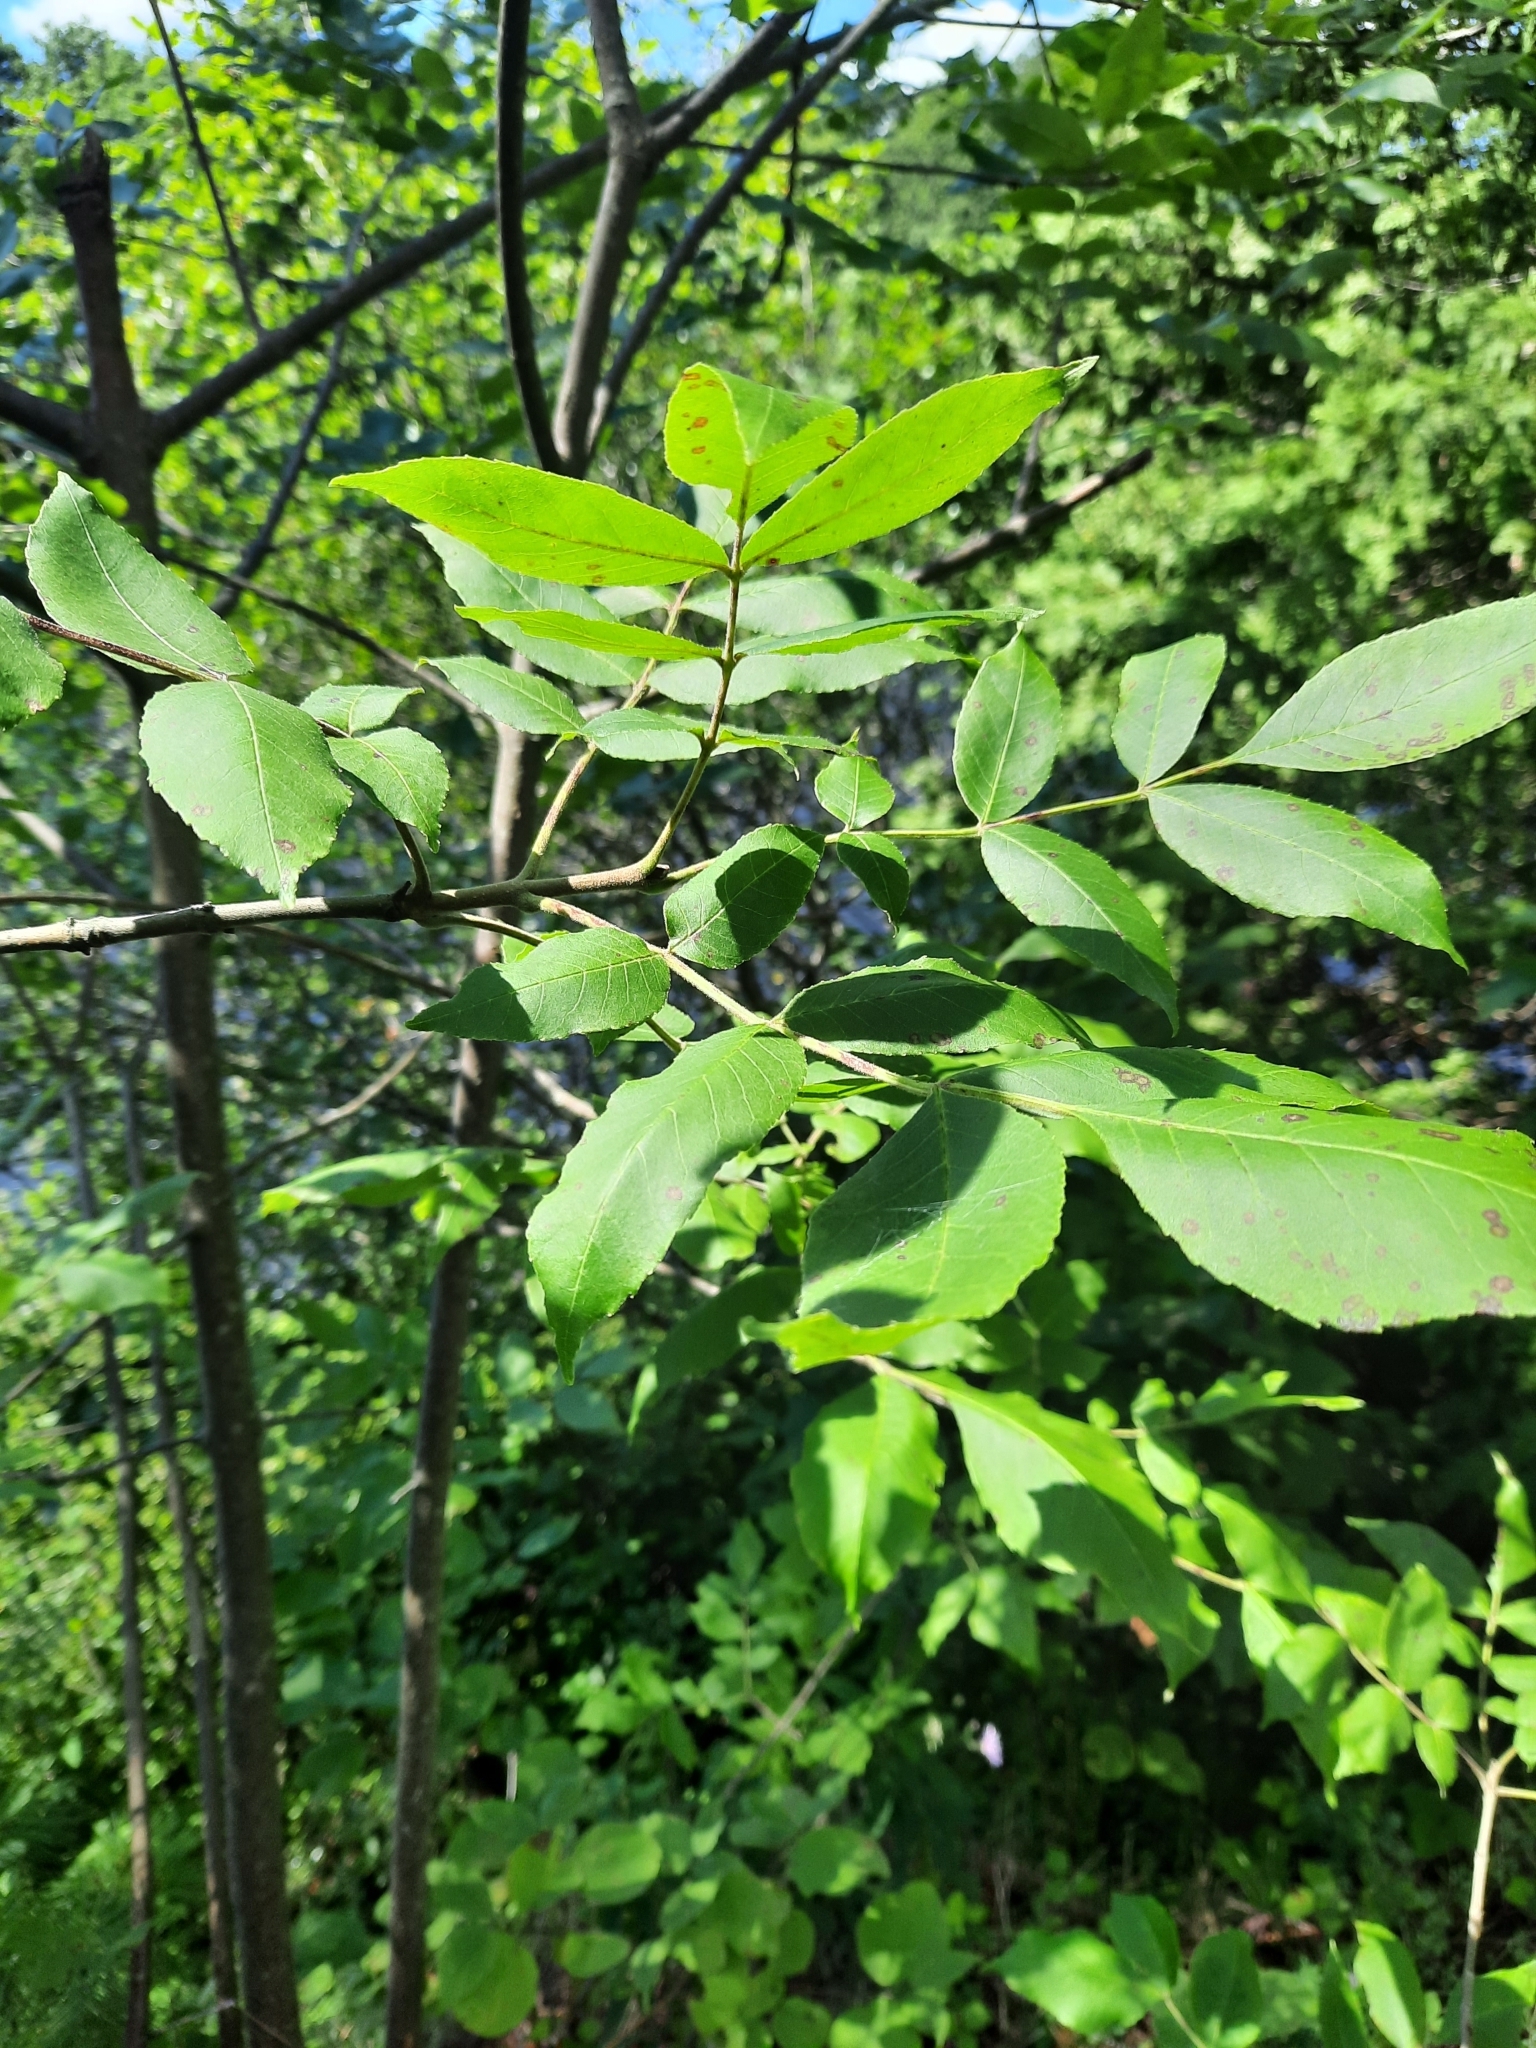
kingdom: Plantae
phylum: Tracheophyta
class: Magnoliopsida
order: Lamiales
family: Oleaceae
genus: Fraxinus
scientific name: Fraxinus pennsylvanica
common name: Green ash
